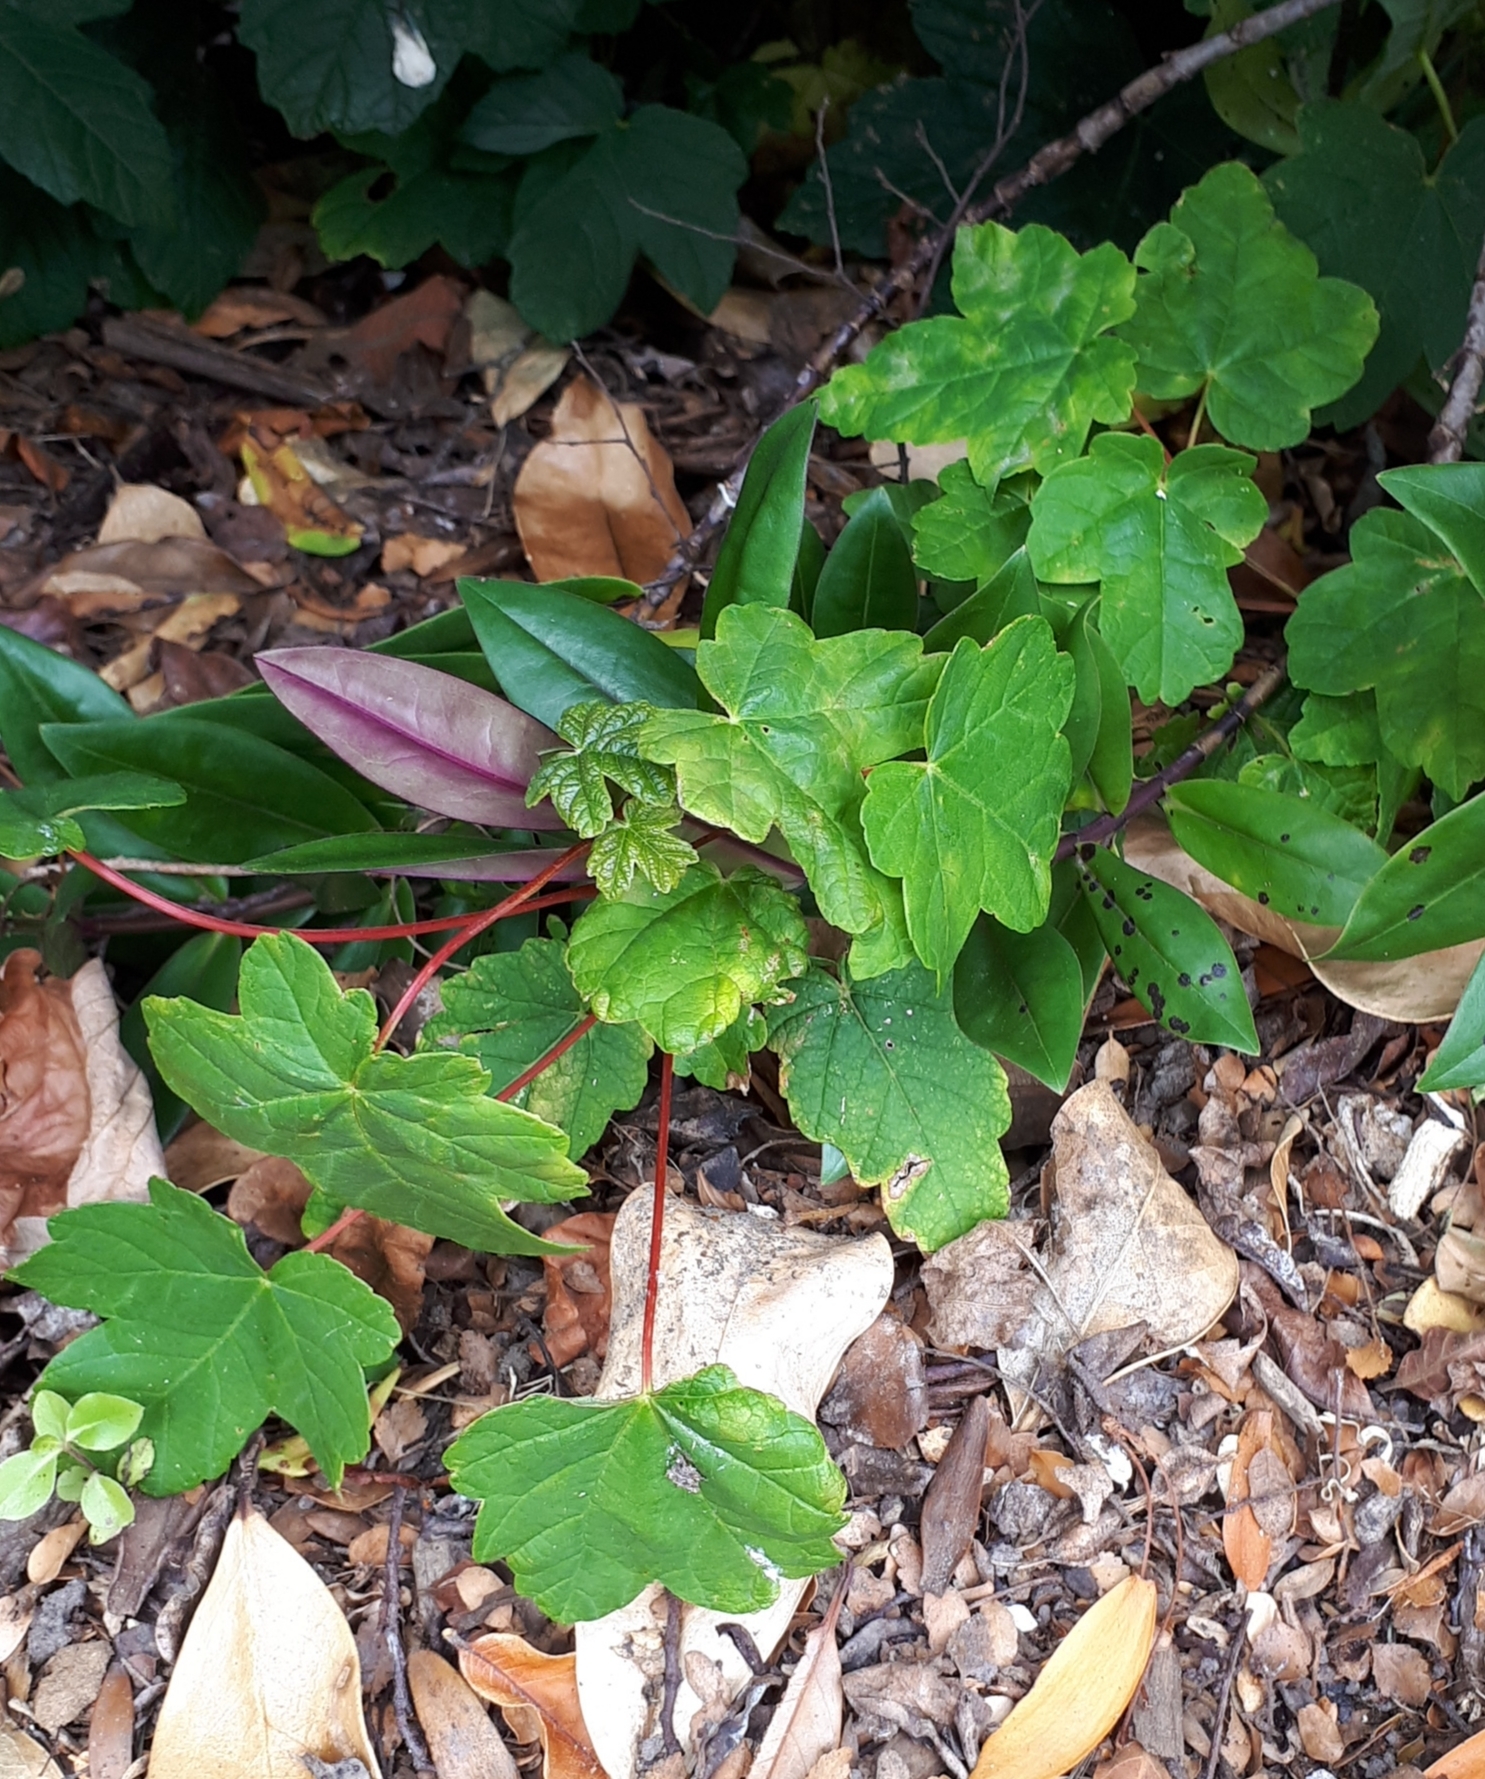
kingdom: Plantae
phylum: Tracheophyta
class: Magnoliopsida
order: Sapindales
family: Sapindaceae
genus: Acer
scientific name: Acer pseudoplatanus
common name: Sycamore
